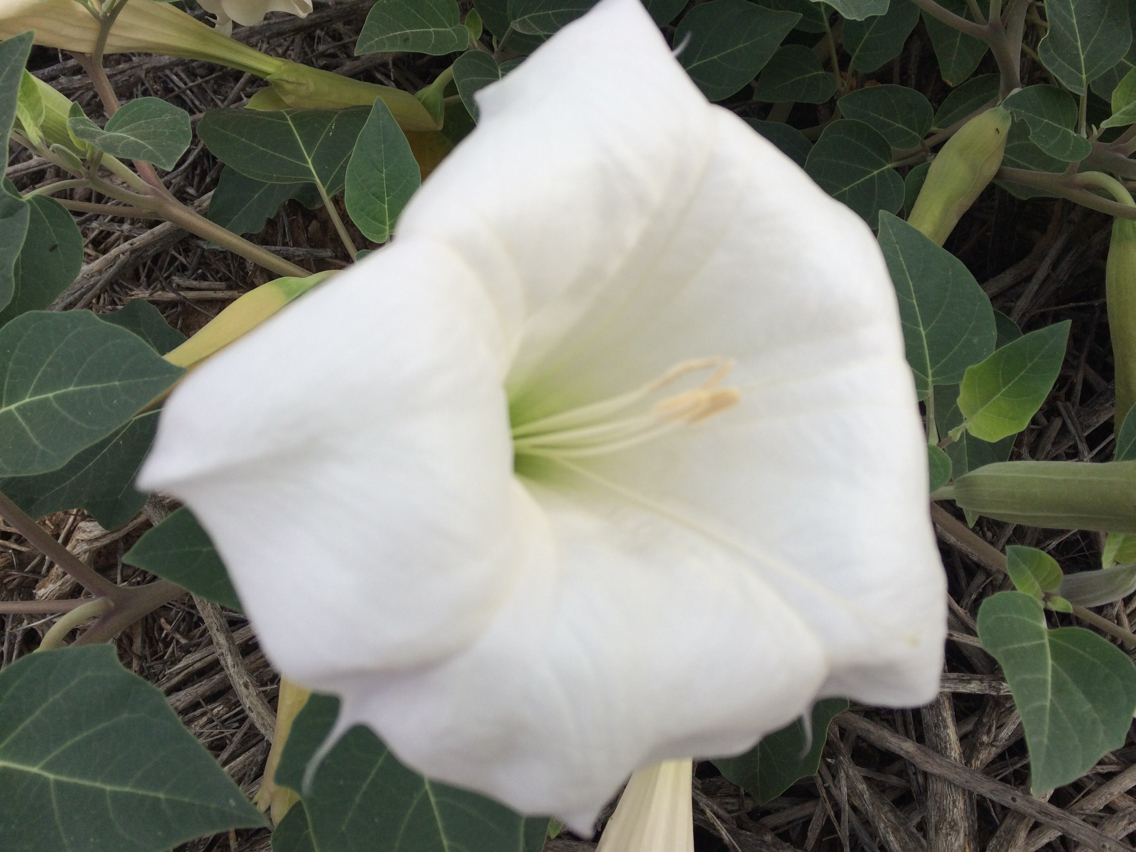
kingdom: Plantae
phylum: Tracheophyta
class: Magnoliopsida
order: Solanales
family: Solanaceae
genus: Datura
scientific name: Datura wrightii
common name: Sacred thorn-apple
